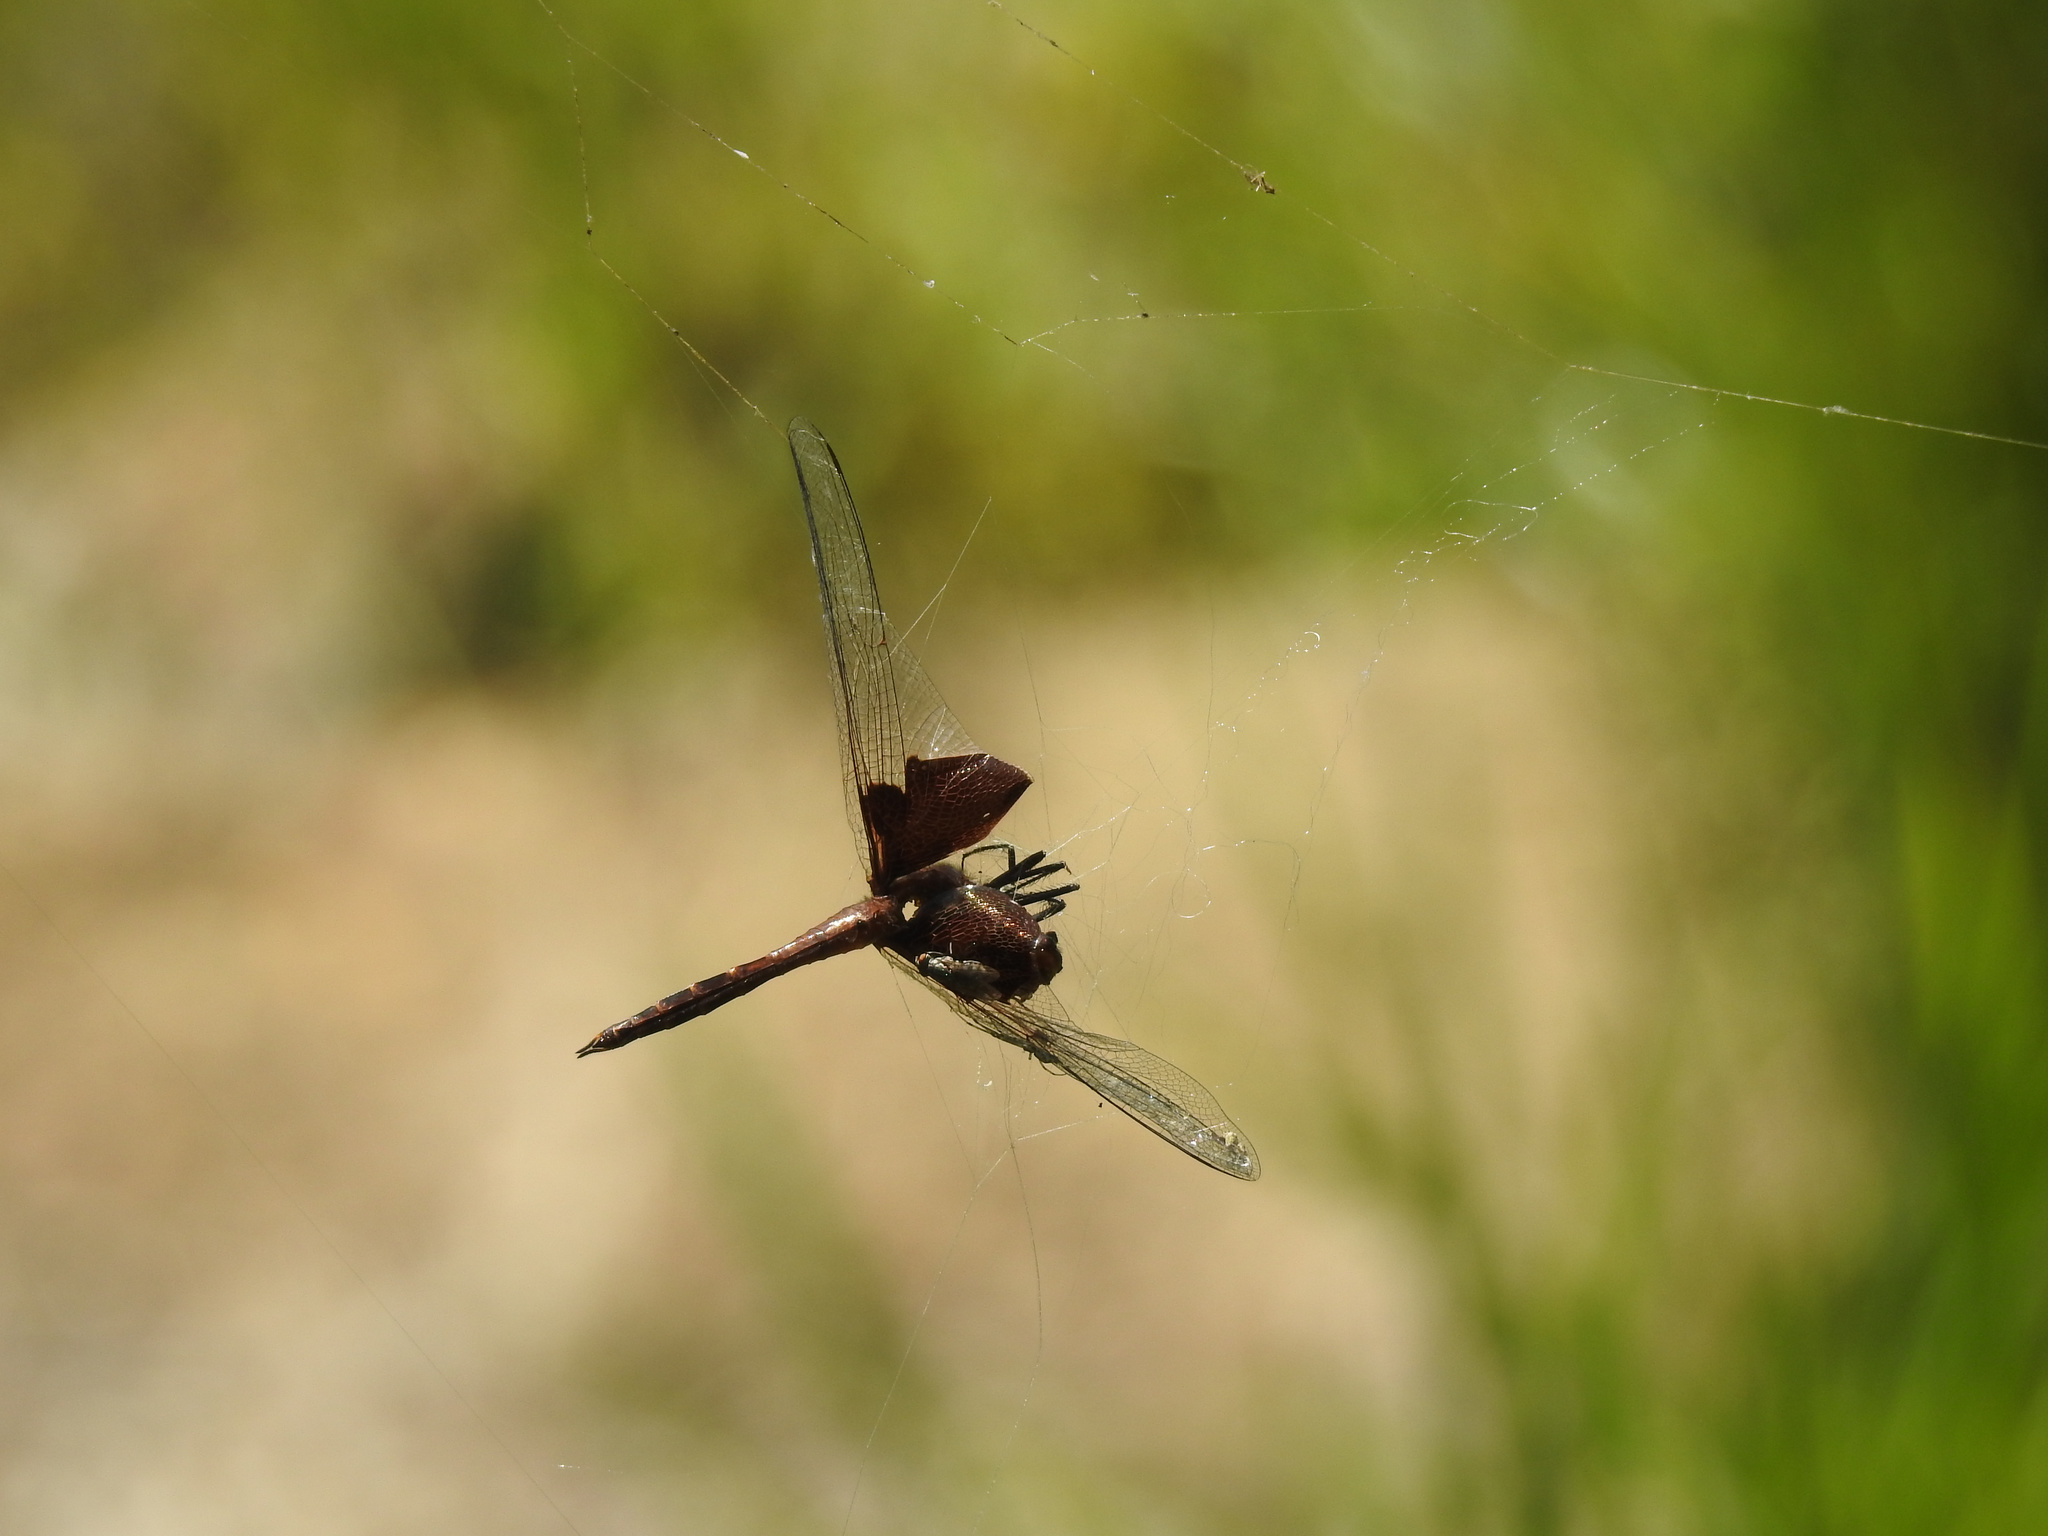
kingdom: Animalia
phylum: Arthropoda
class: Insecta
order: Odonata
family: Libellulidae
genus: Tramea
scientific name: Tramea carolina
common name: Carolina saddlebags
